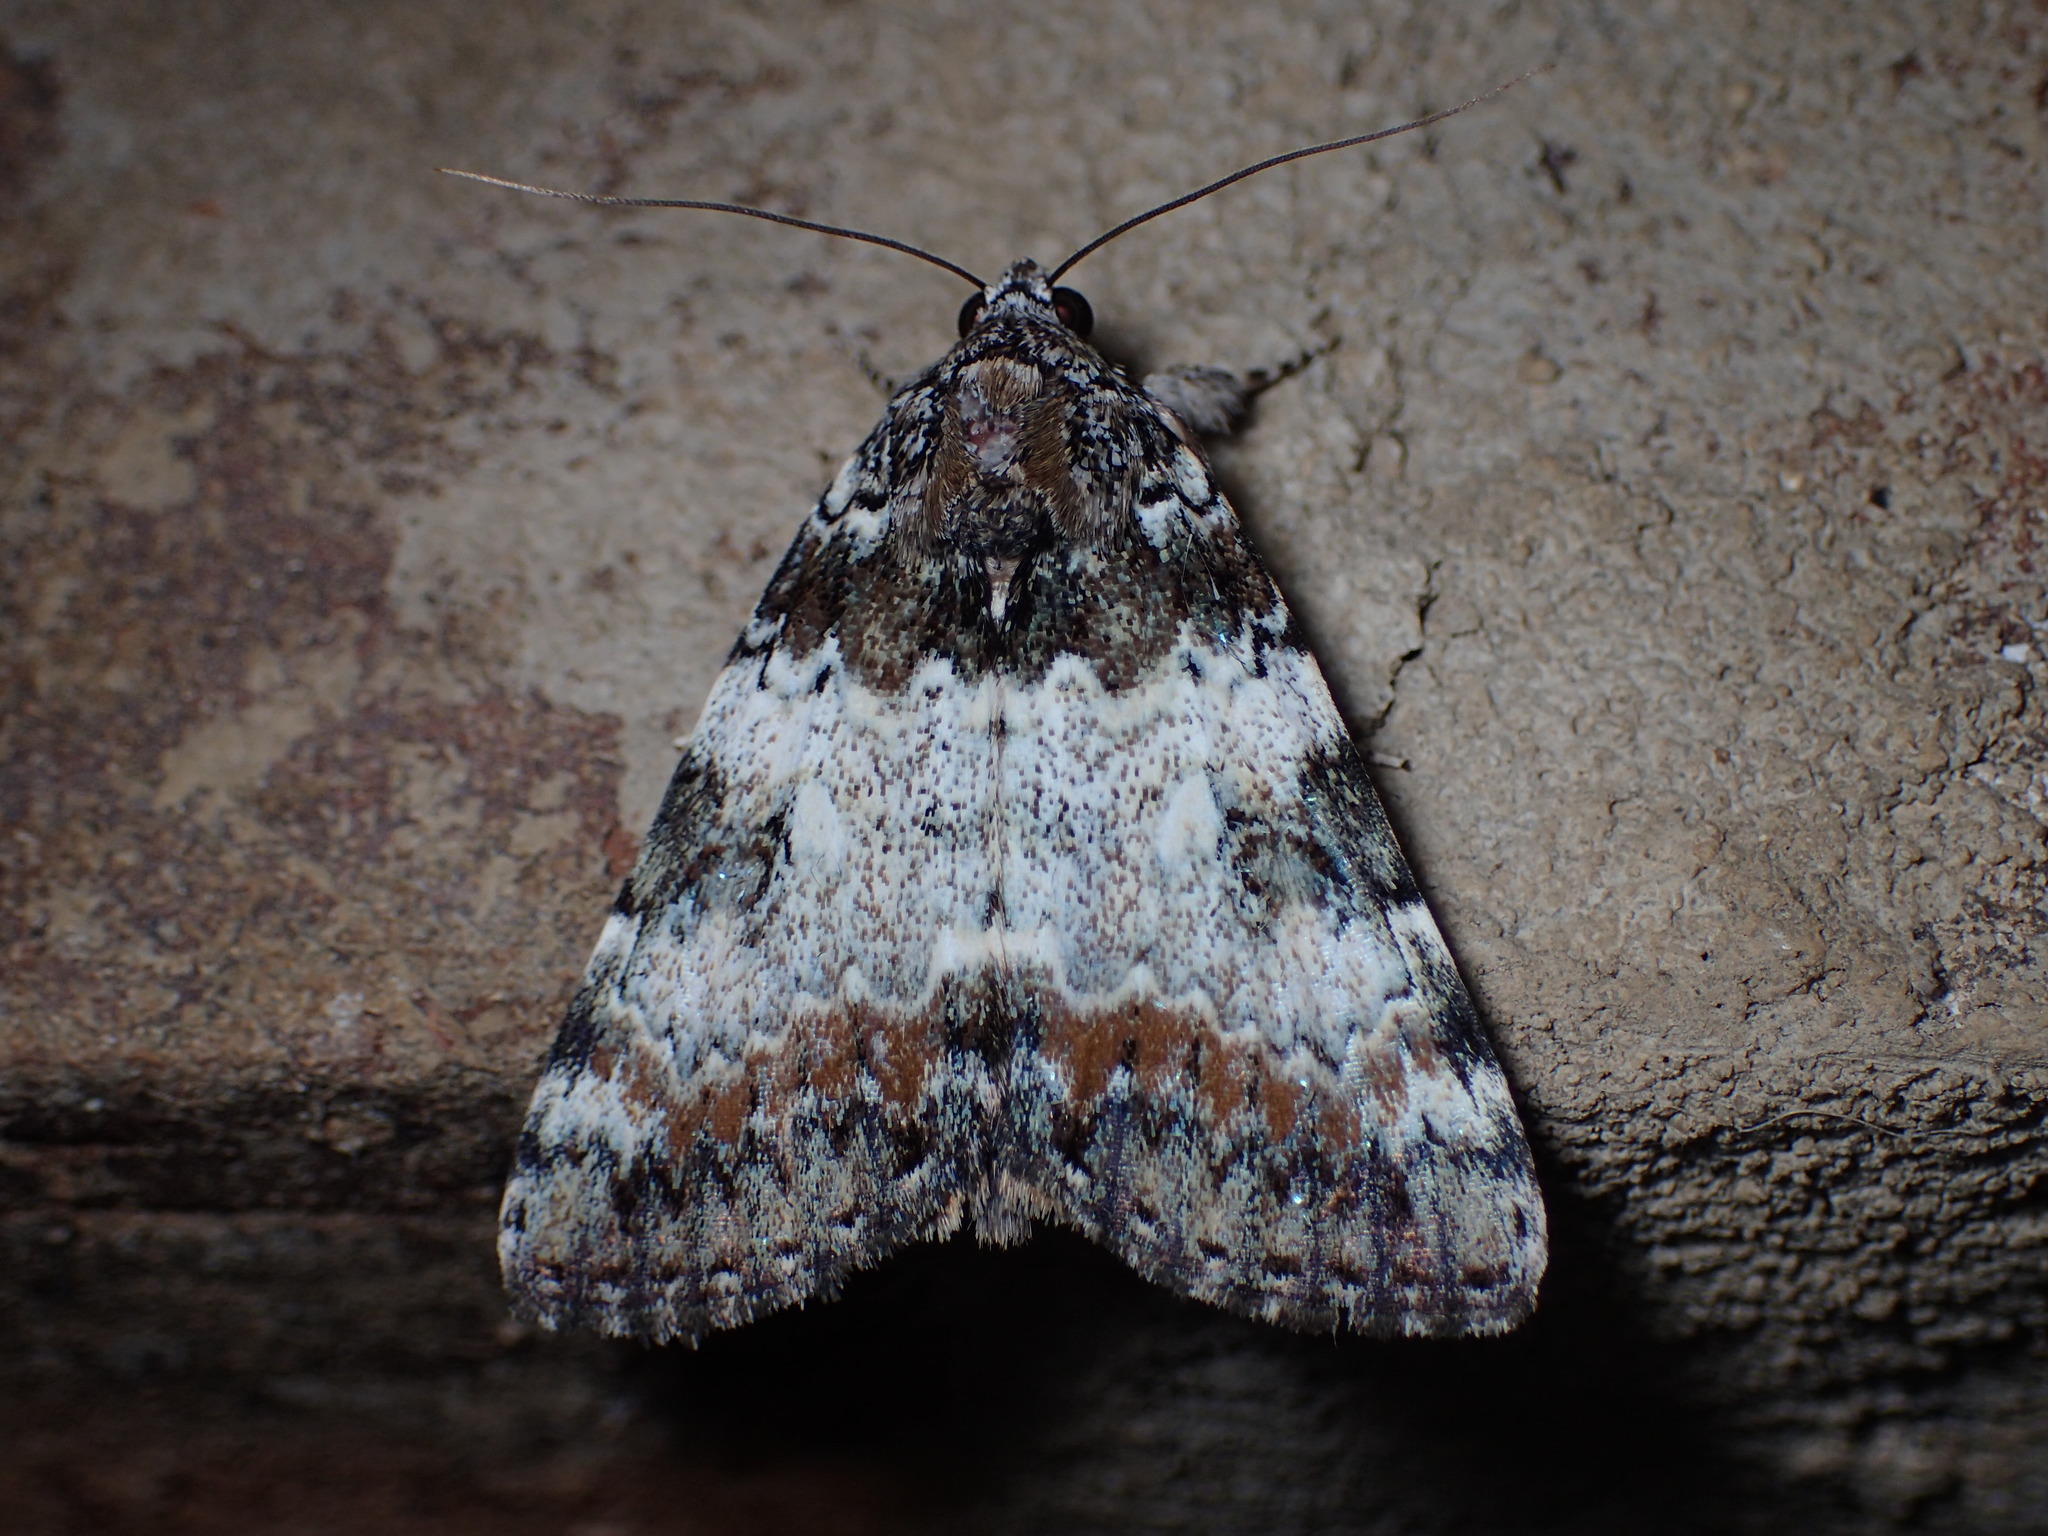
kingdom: Animalia
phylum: Arthropoda
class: Insecta
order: Lepidoptera
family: Erebidae
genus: Catocala
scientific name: Catocala connubialis
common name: Connubial underwing
